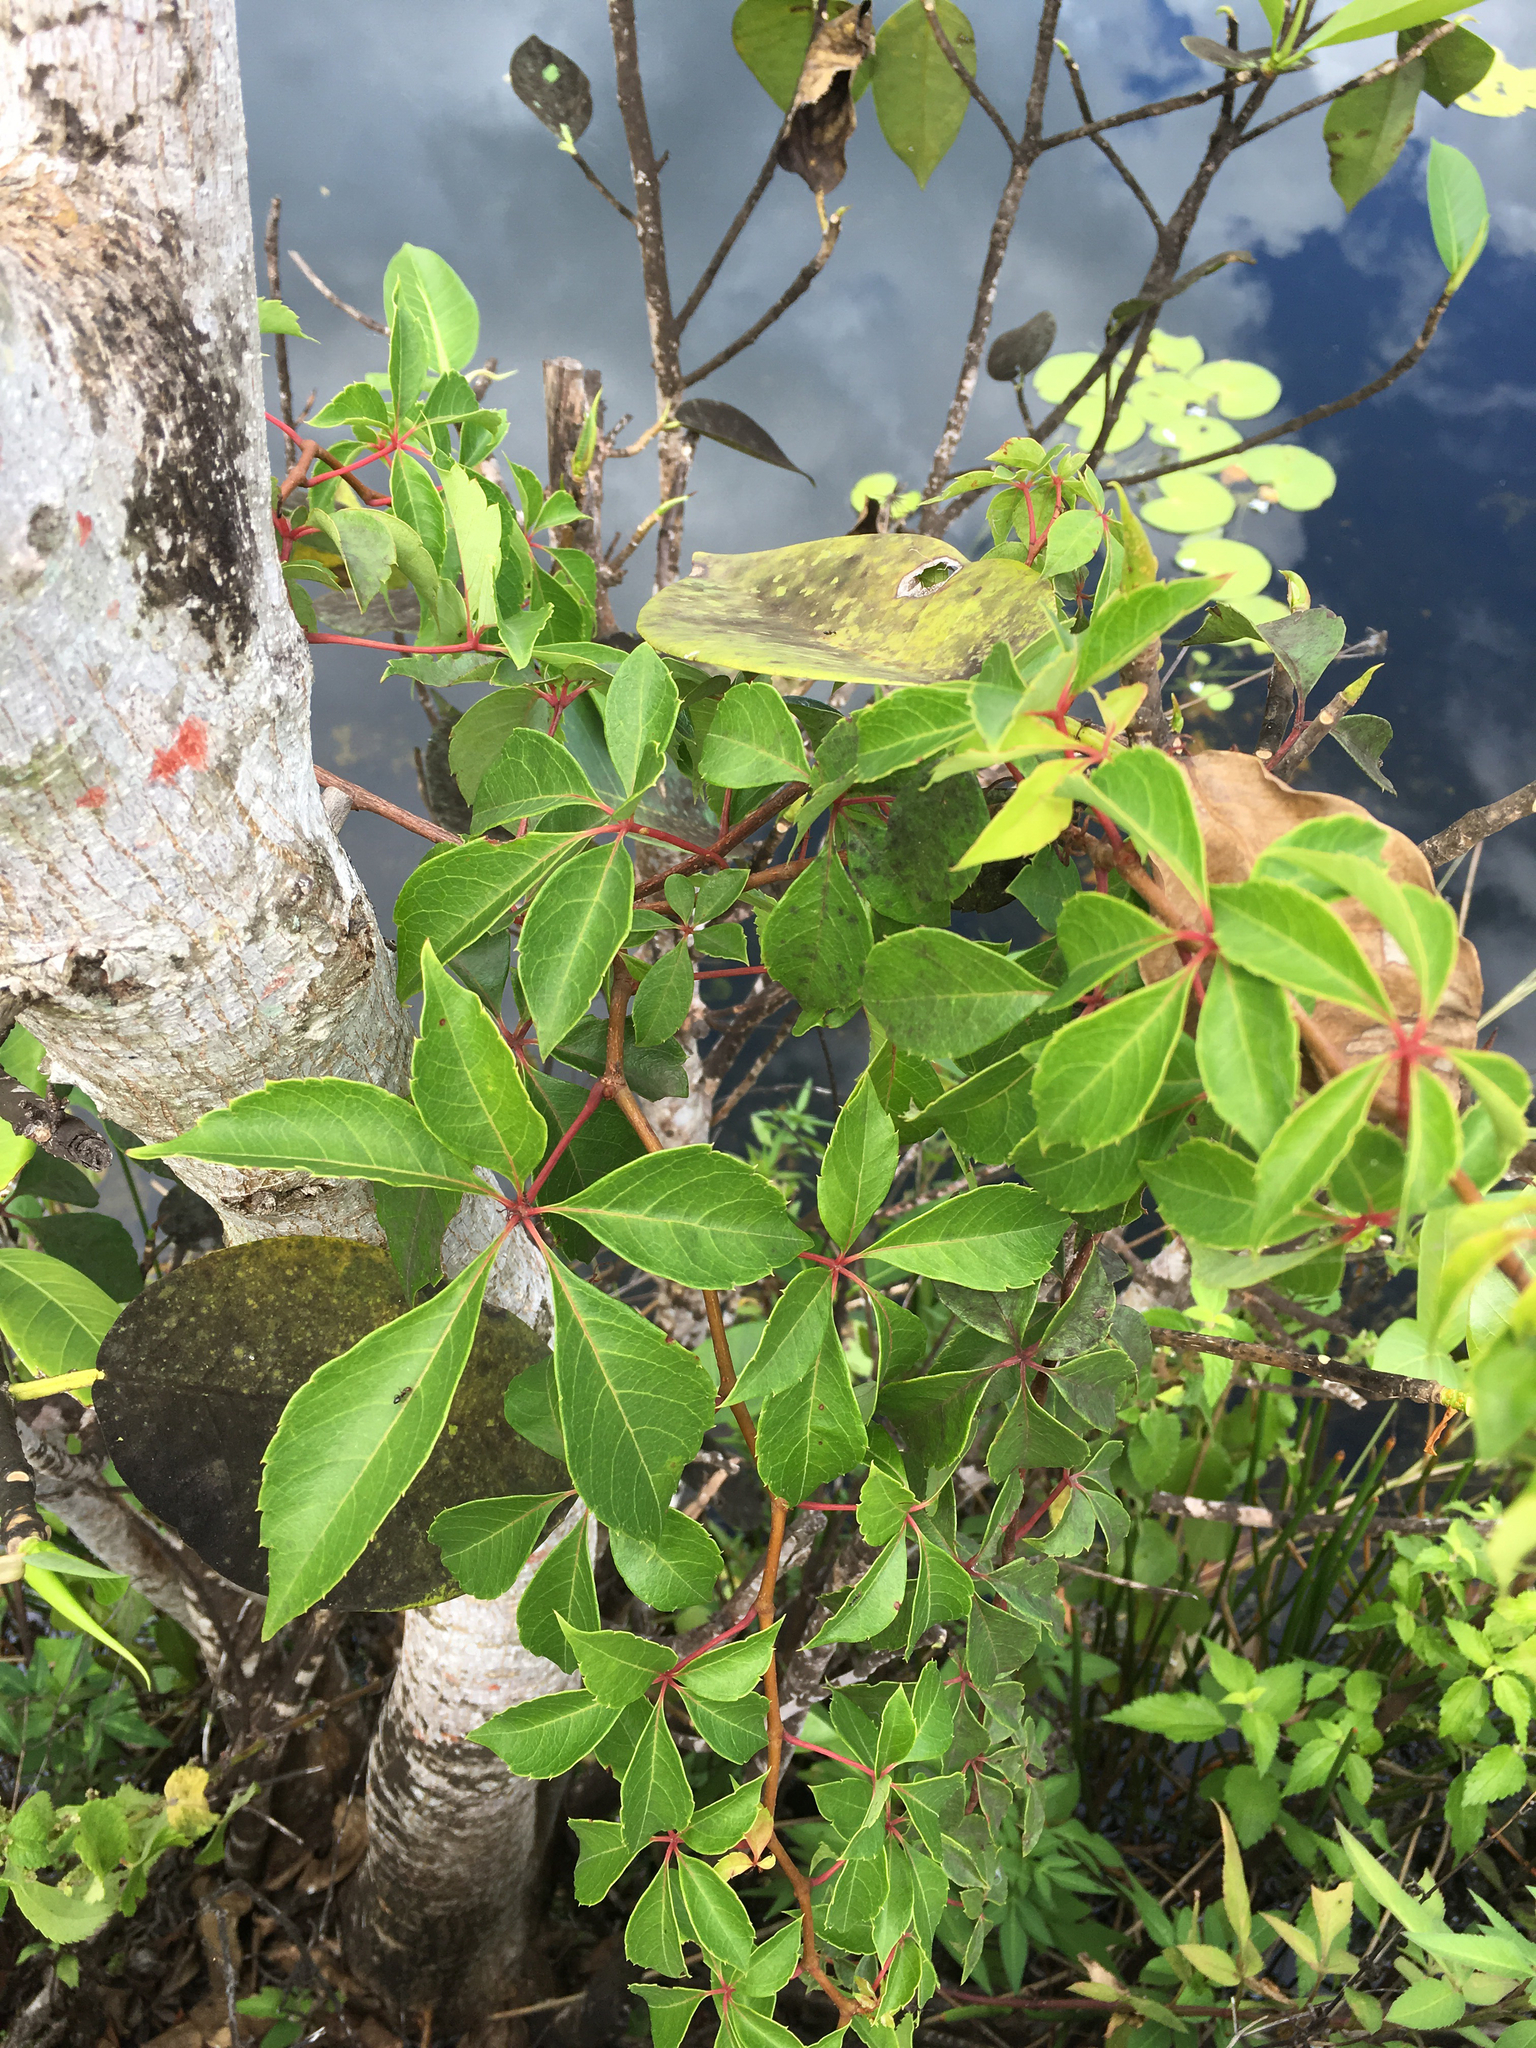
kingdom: Plantae
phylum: Tracheophyta
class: Magnoliopsida
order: Vitales
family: Vitaceae
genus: Parthenocissus
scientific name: Parthenocissus quinquefolia
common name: Virginia-creeper
